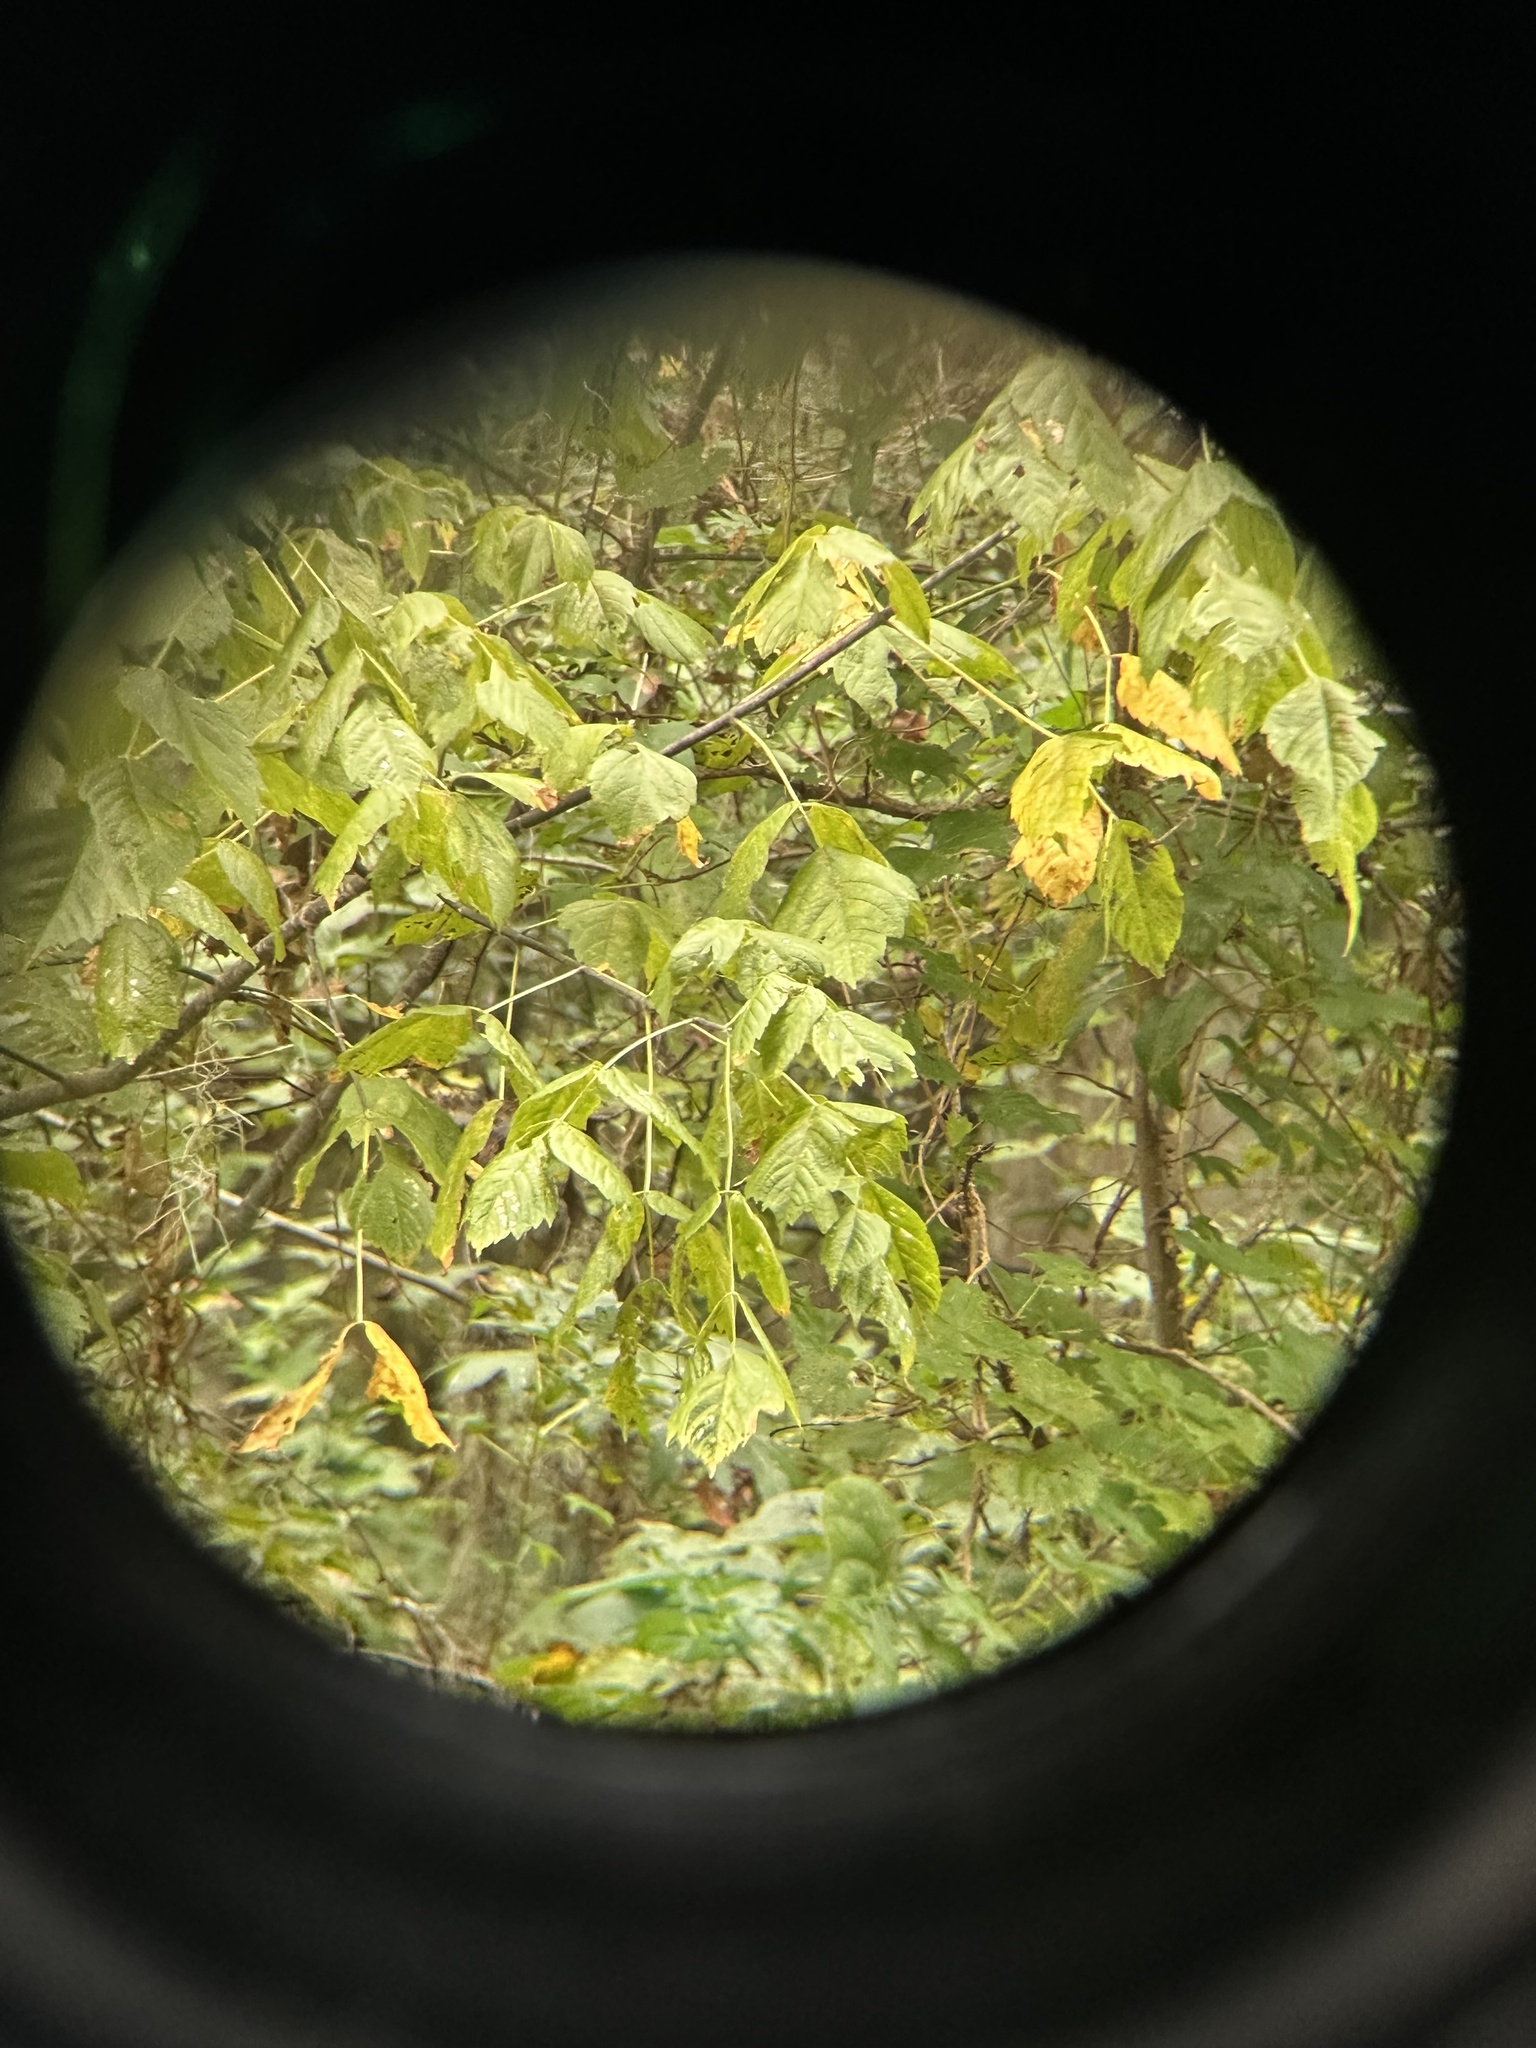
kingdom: Plantae
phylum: Tracheophyta
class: Magnoliopsida
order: Sapindales
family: Sapindaceae
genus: Acer
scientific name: Acer negundo
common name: Ashleaf maple
